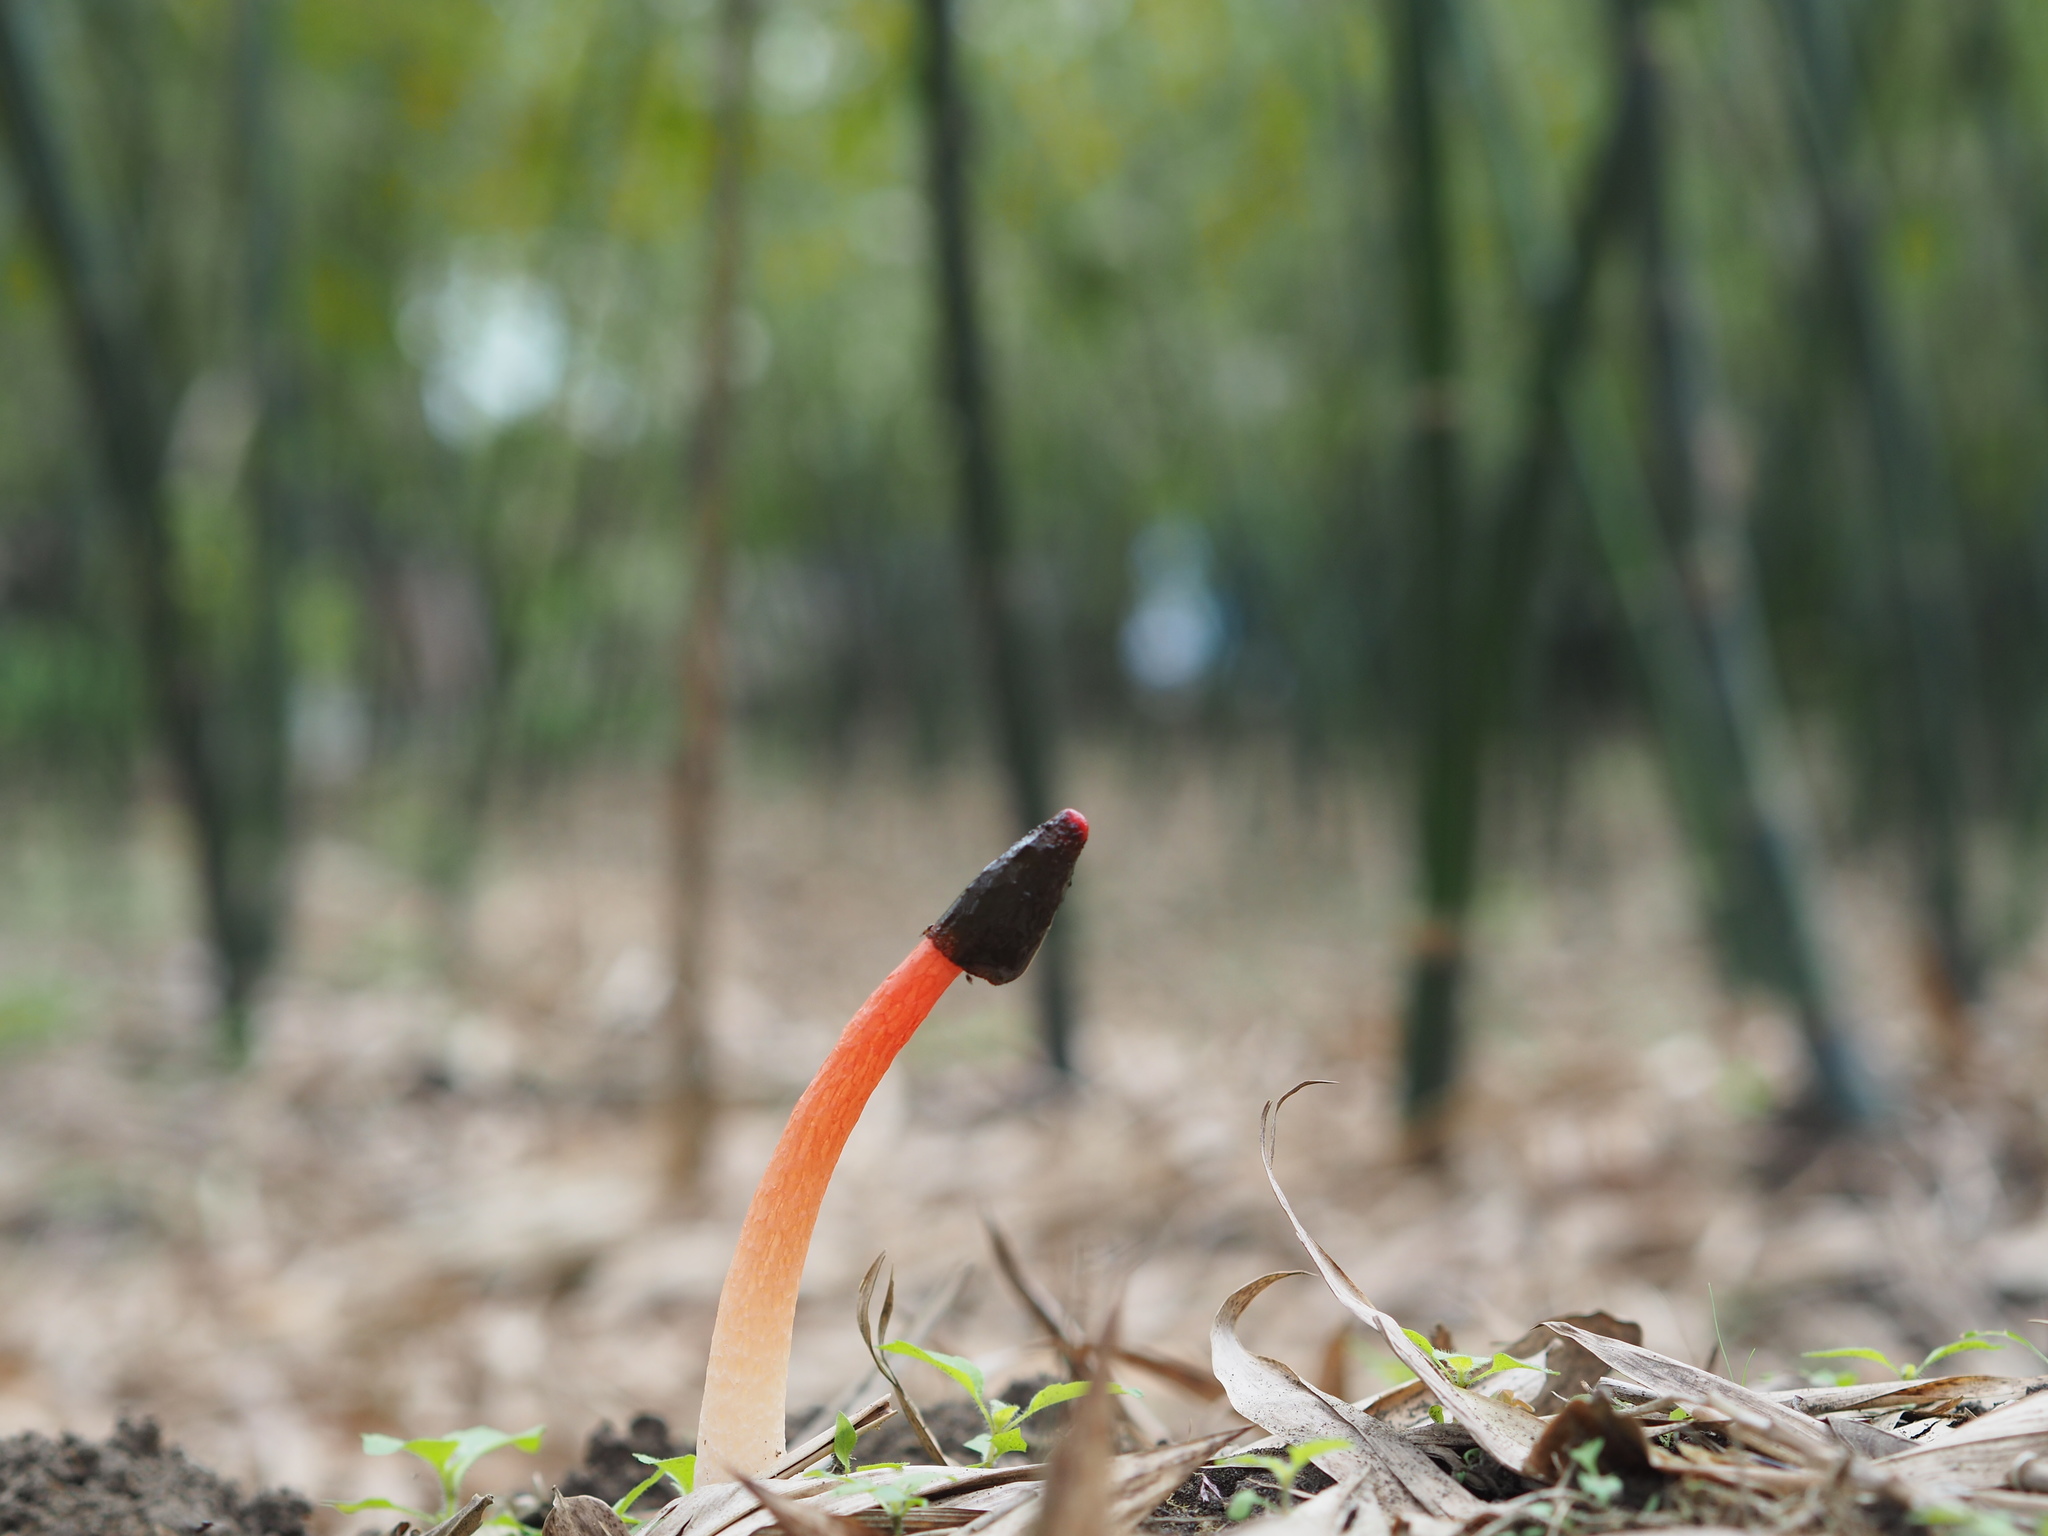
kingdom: Fungi
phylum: Basidiomycota
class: Agaricomycetes
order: Phallales
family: Phallaceae
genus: Phallus
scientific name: Phallus rugulosus
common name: Wrinkly stinkhorn
